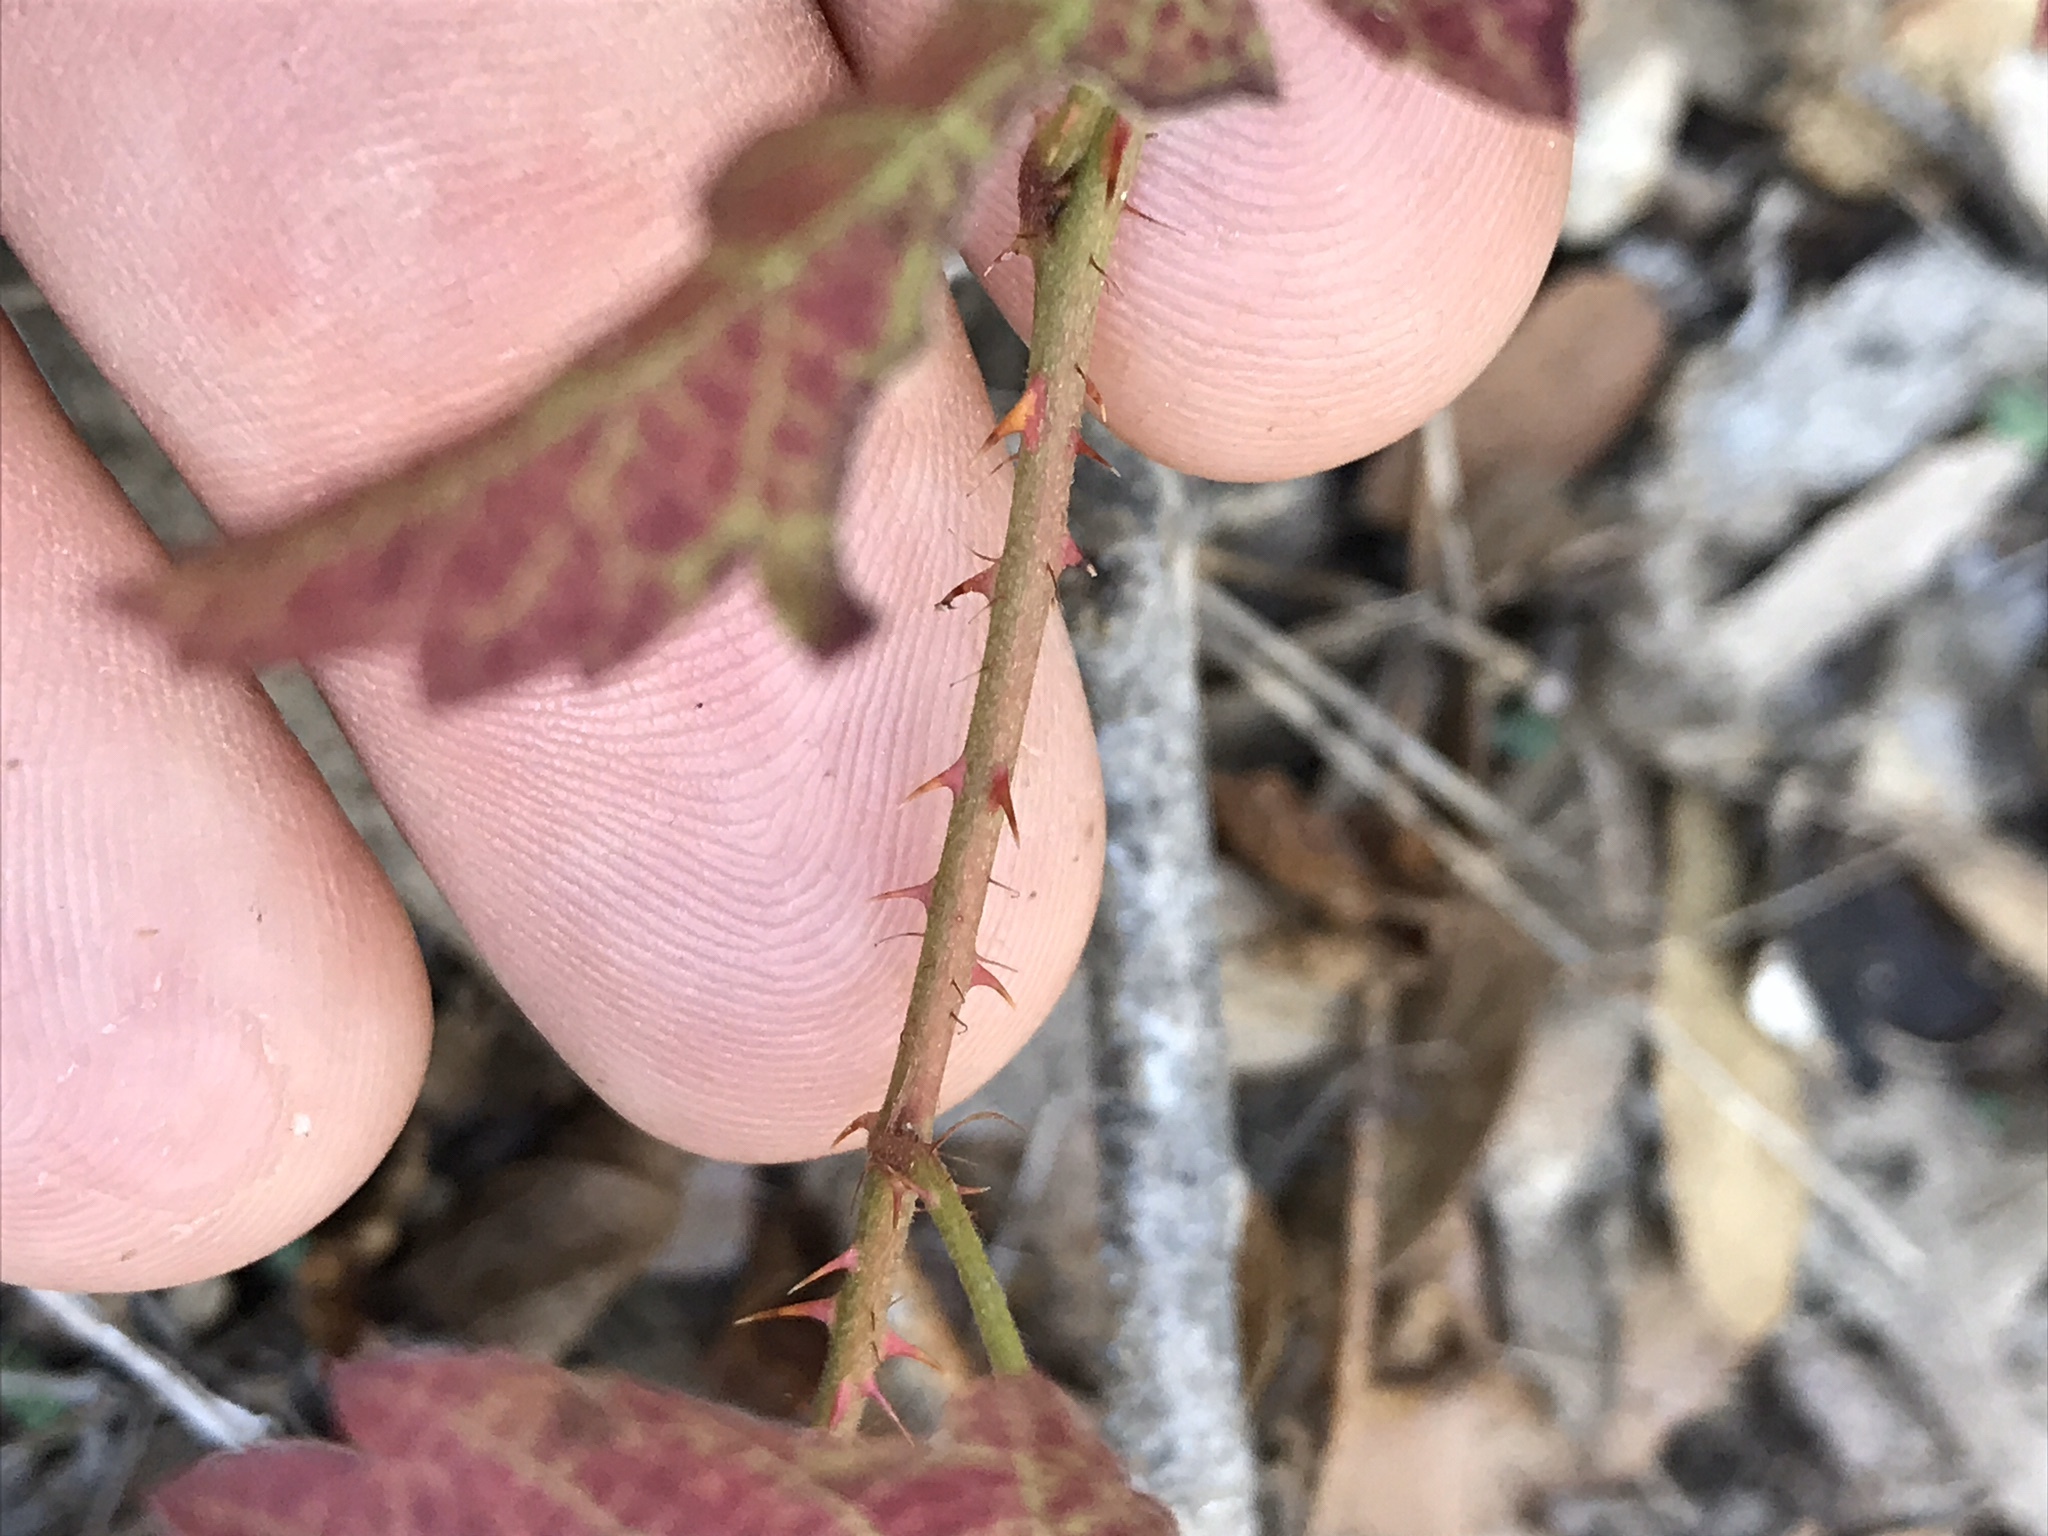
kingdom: Plantae
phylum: Tracheophyta
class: Magnoliopsida
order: Rosales
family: Rosaceae
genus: Rubus
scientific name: Rubus trivialis
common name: Southern dewberry
